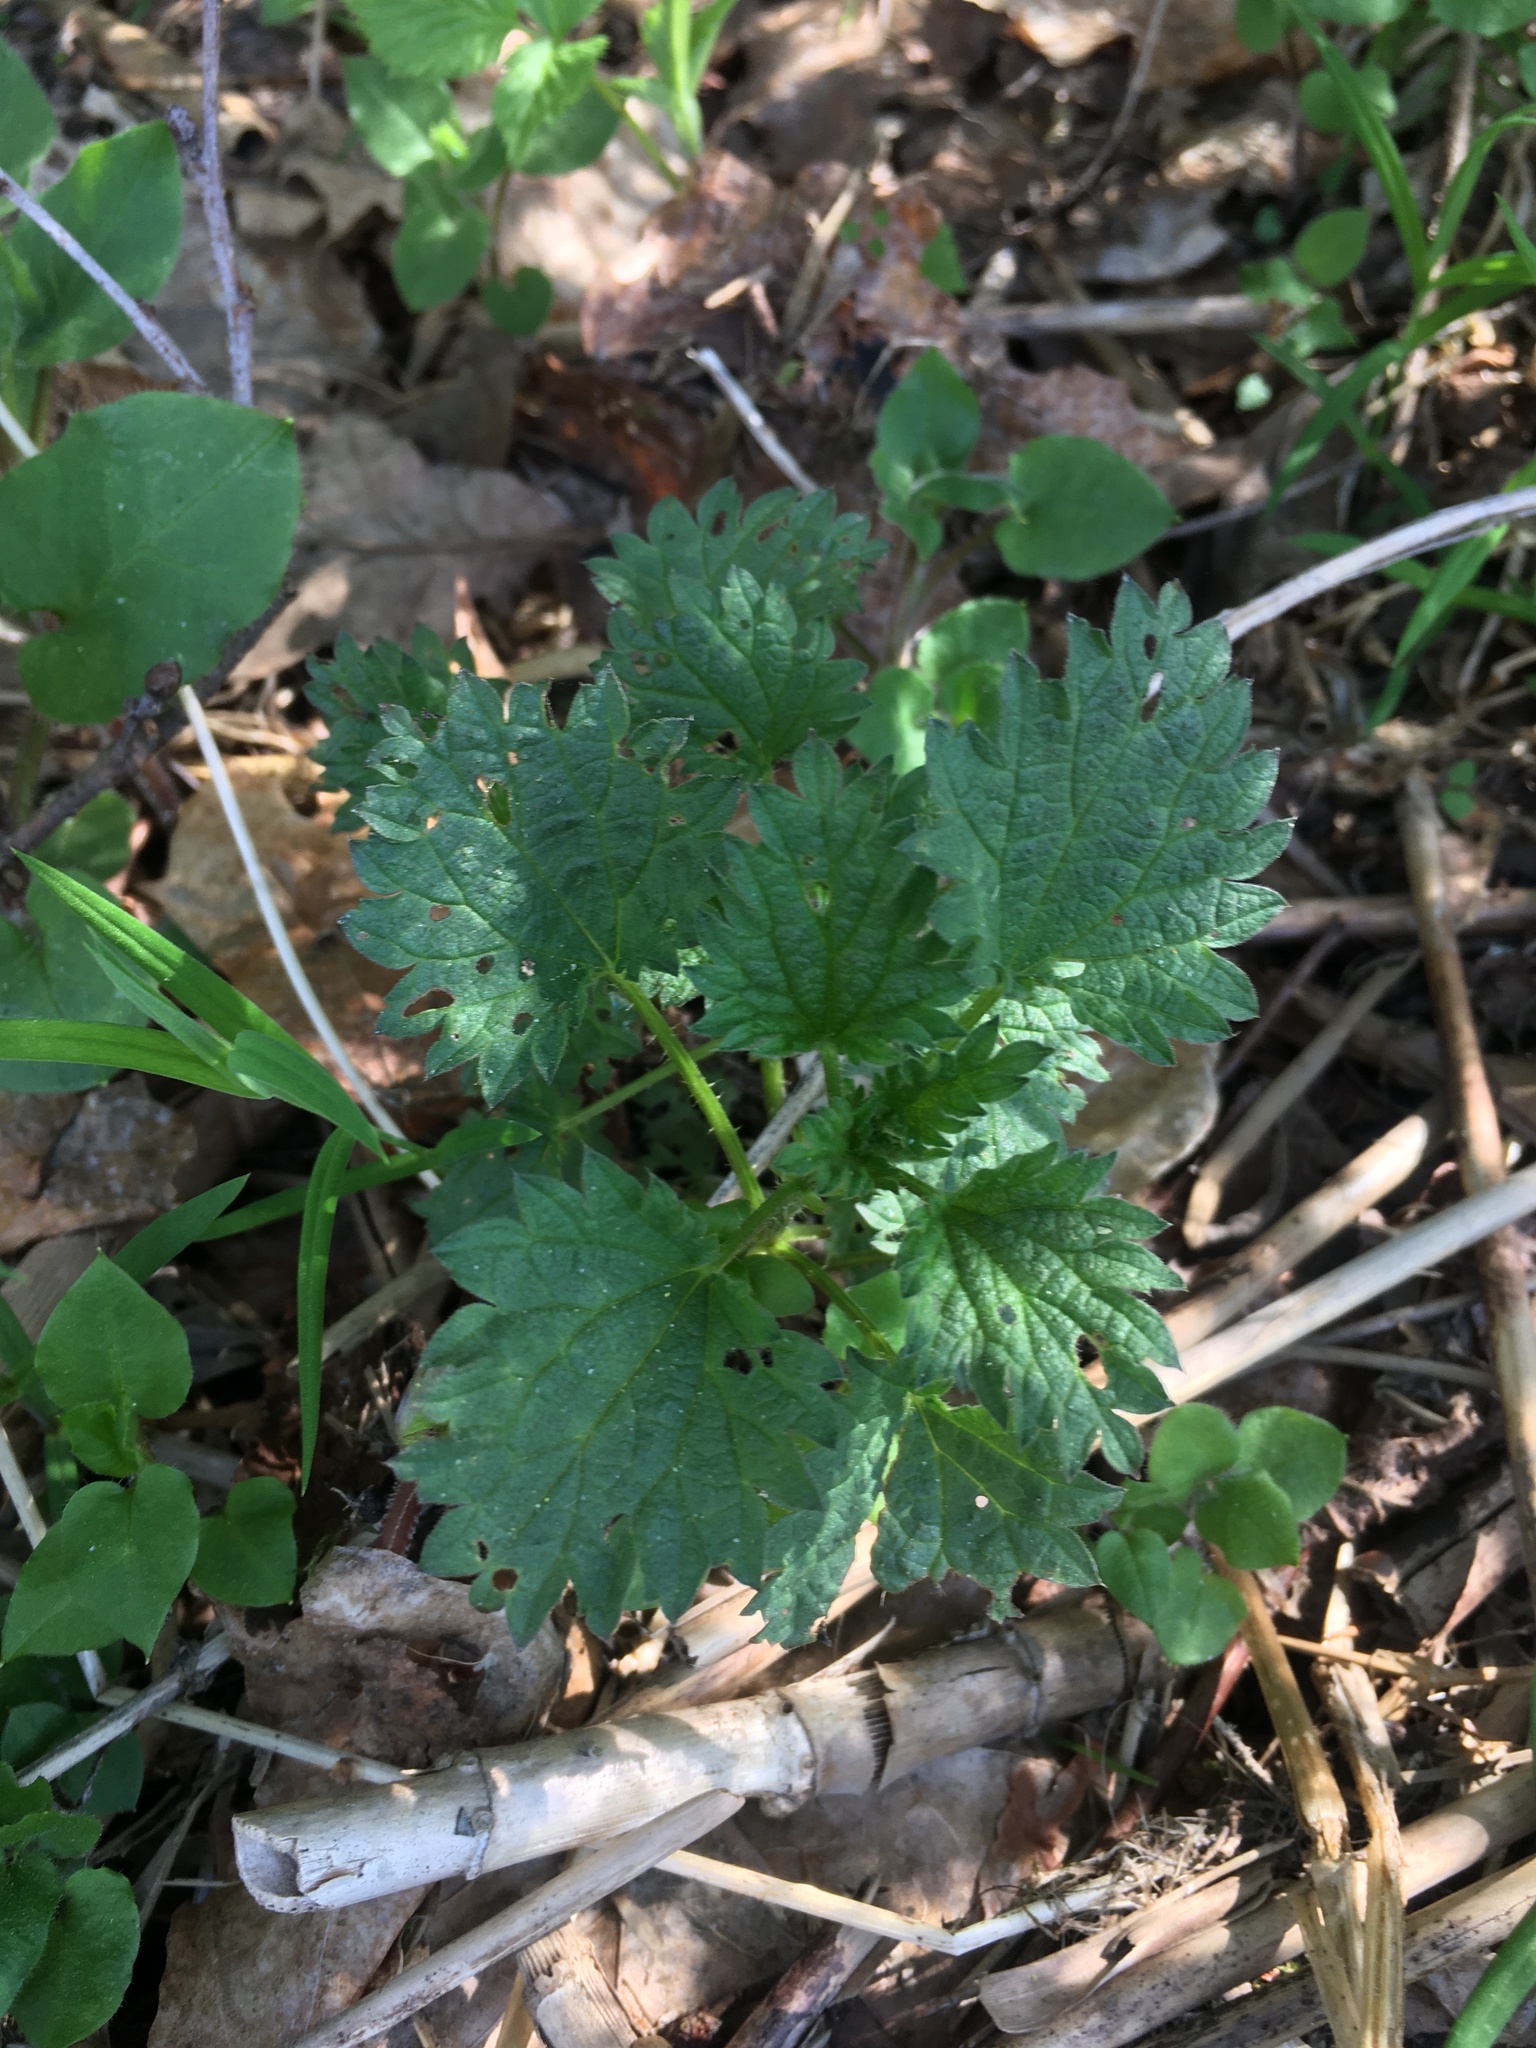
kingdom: Plantae
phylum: Tracheophyta
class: Magnoliopsida
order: Rosales
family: Urticaceae
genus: Urtica
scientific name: Urtica dioica
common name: Common nettle
